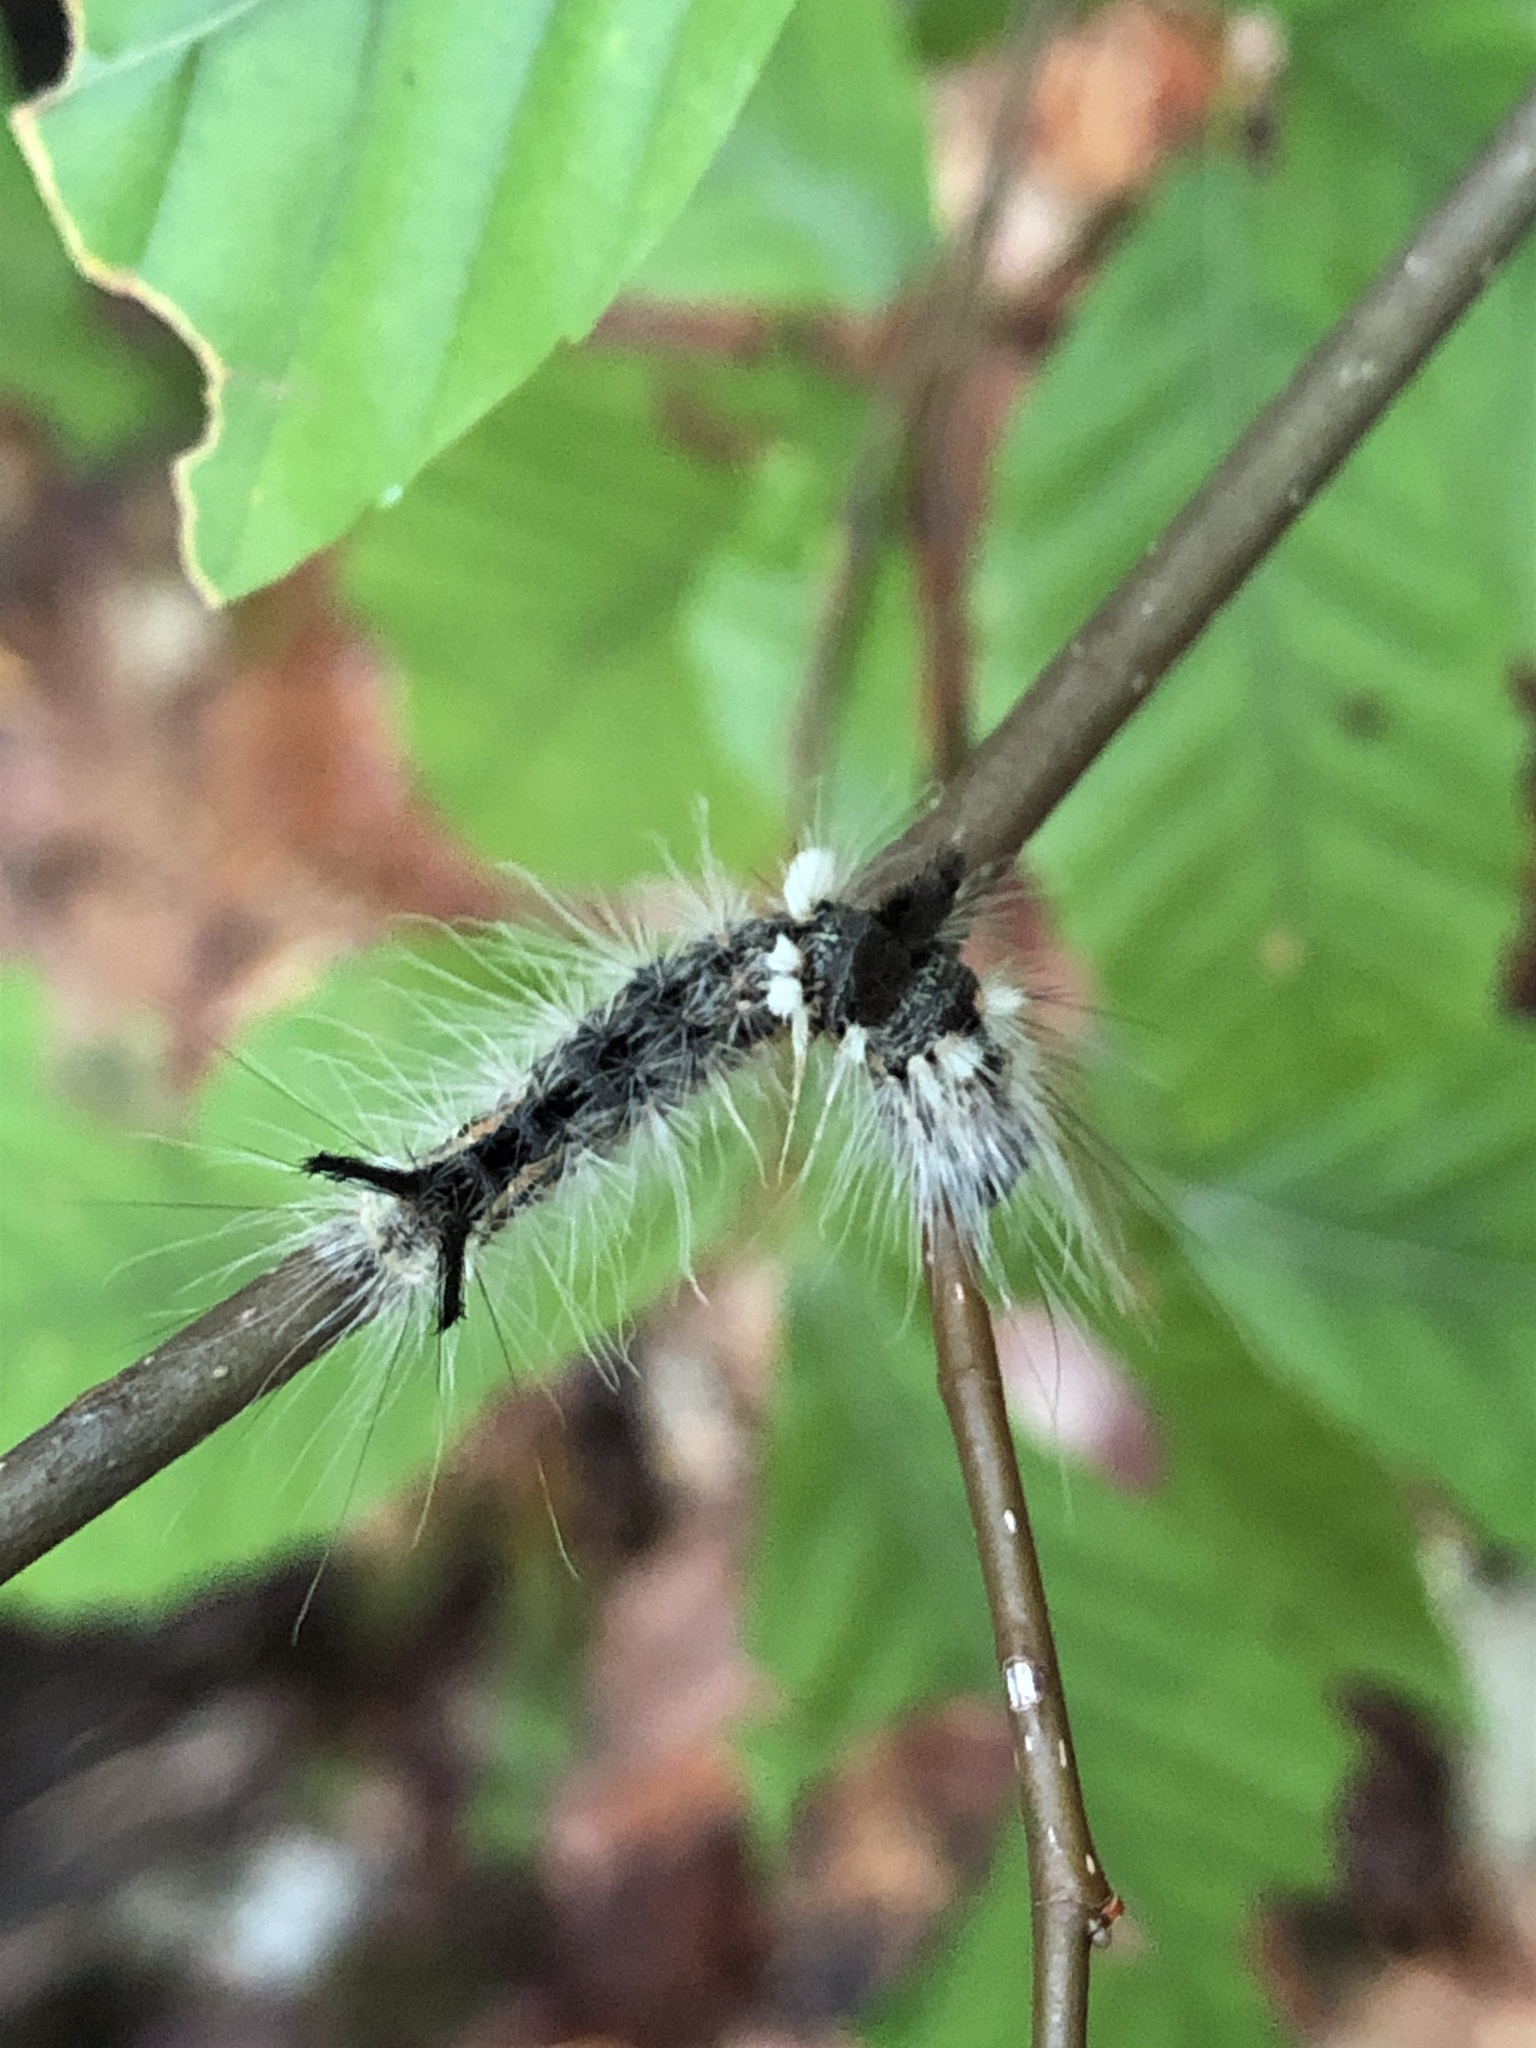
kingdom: Animalia
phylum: Arthropoda
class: Insecta
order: Lepidoptera
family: Noctuidae
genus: Acronicta
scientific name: Acronicta impleta
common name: Powdered dagger
